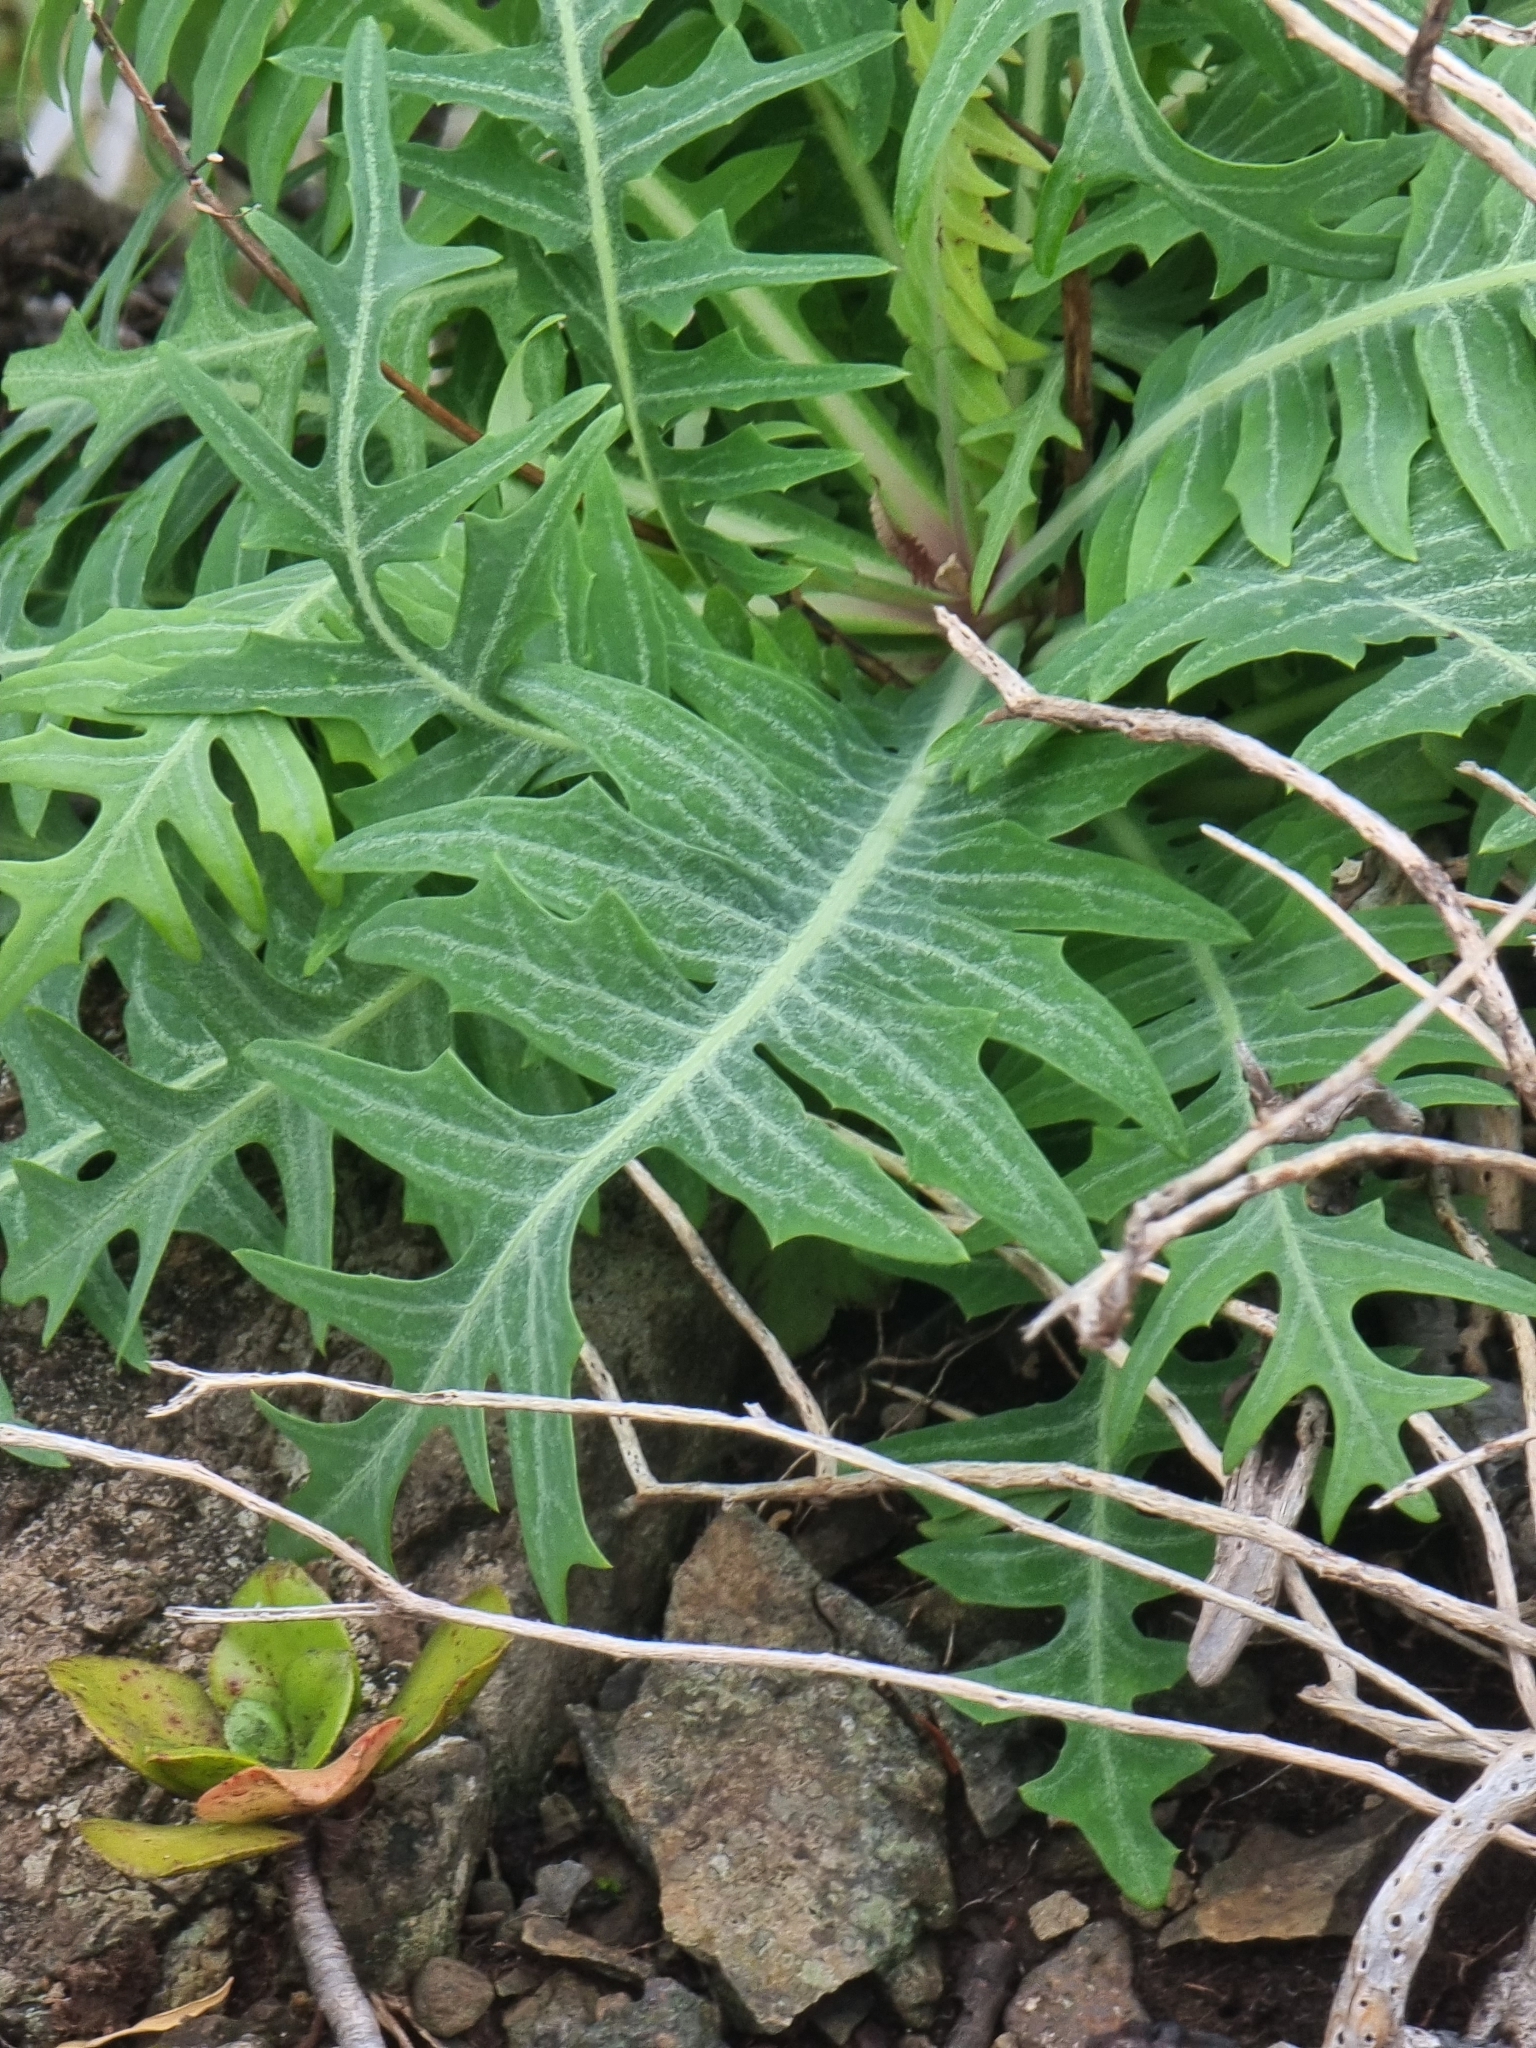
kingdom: Plantae
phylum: Tracheophyta
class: Magnoliopsida
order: Asterales
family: Asteraceae
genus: Sonchus
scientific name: Sonchus ustulatus
